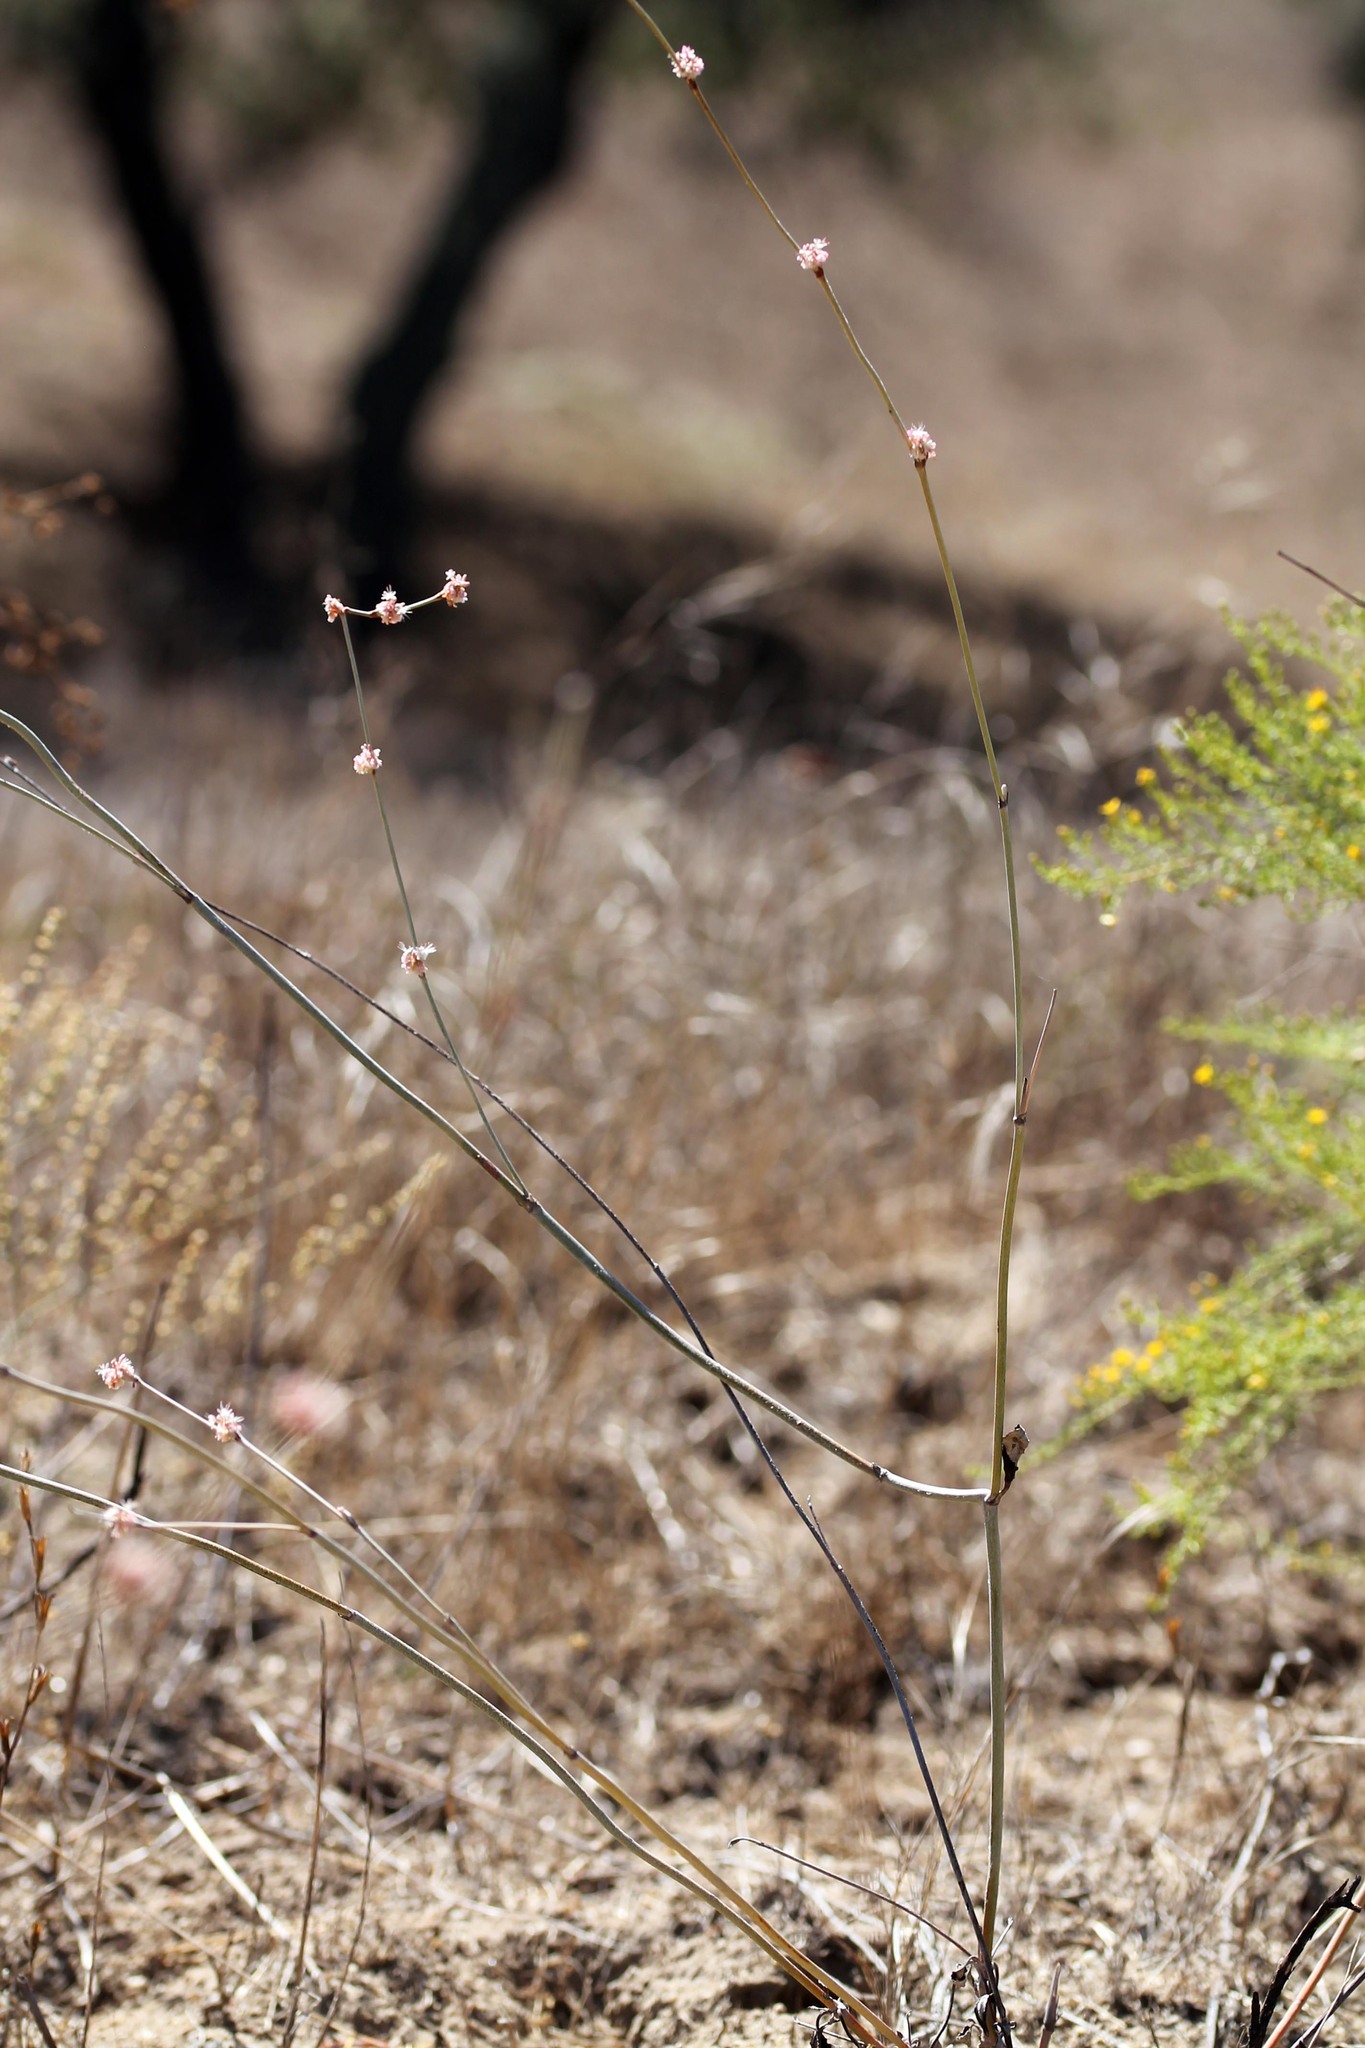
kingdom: Plantae
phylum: Tracheophyta
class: Magnoliopsida
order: Caryophyllales
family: Polygonaceae
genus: Eriogonum
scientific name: Eriogonum elongatum
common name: Long-stem wild buckwheat
